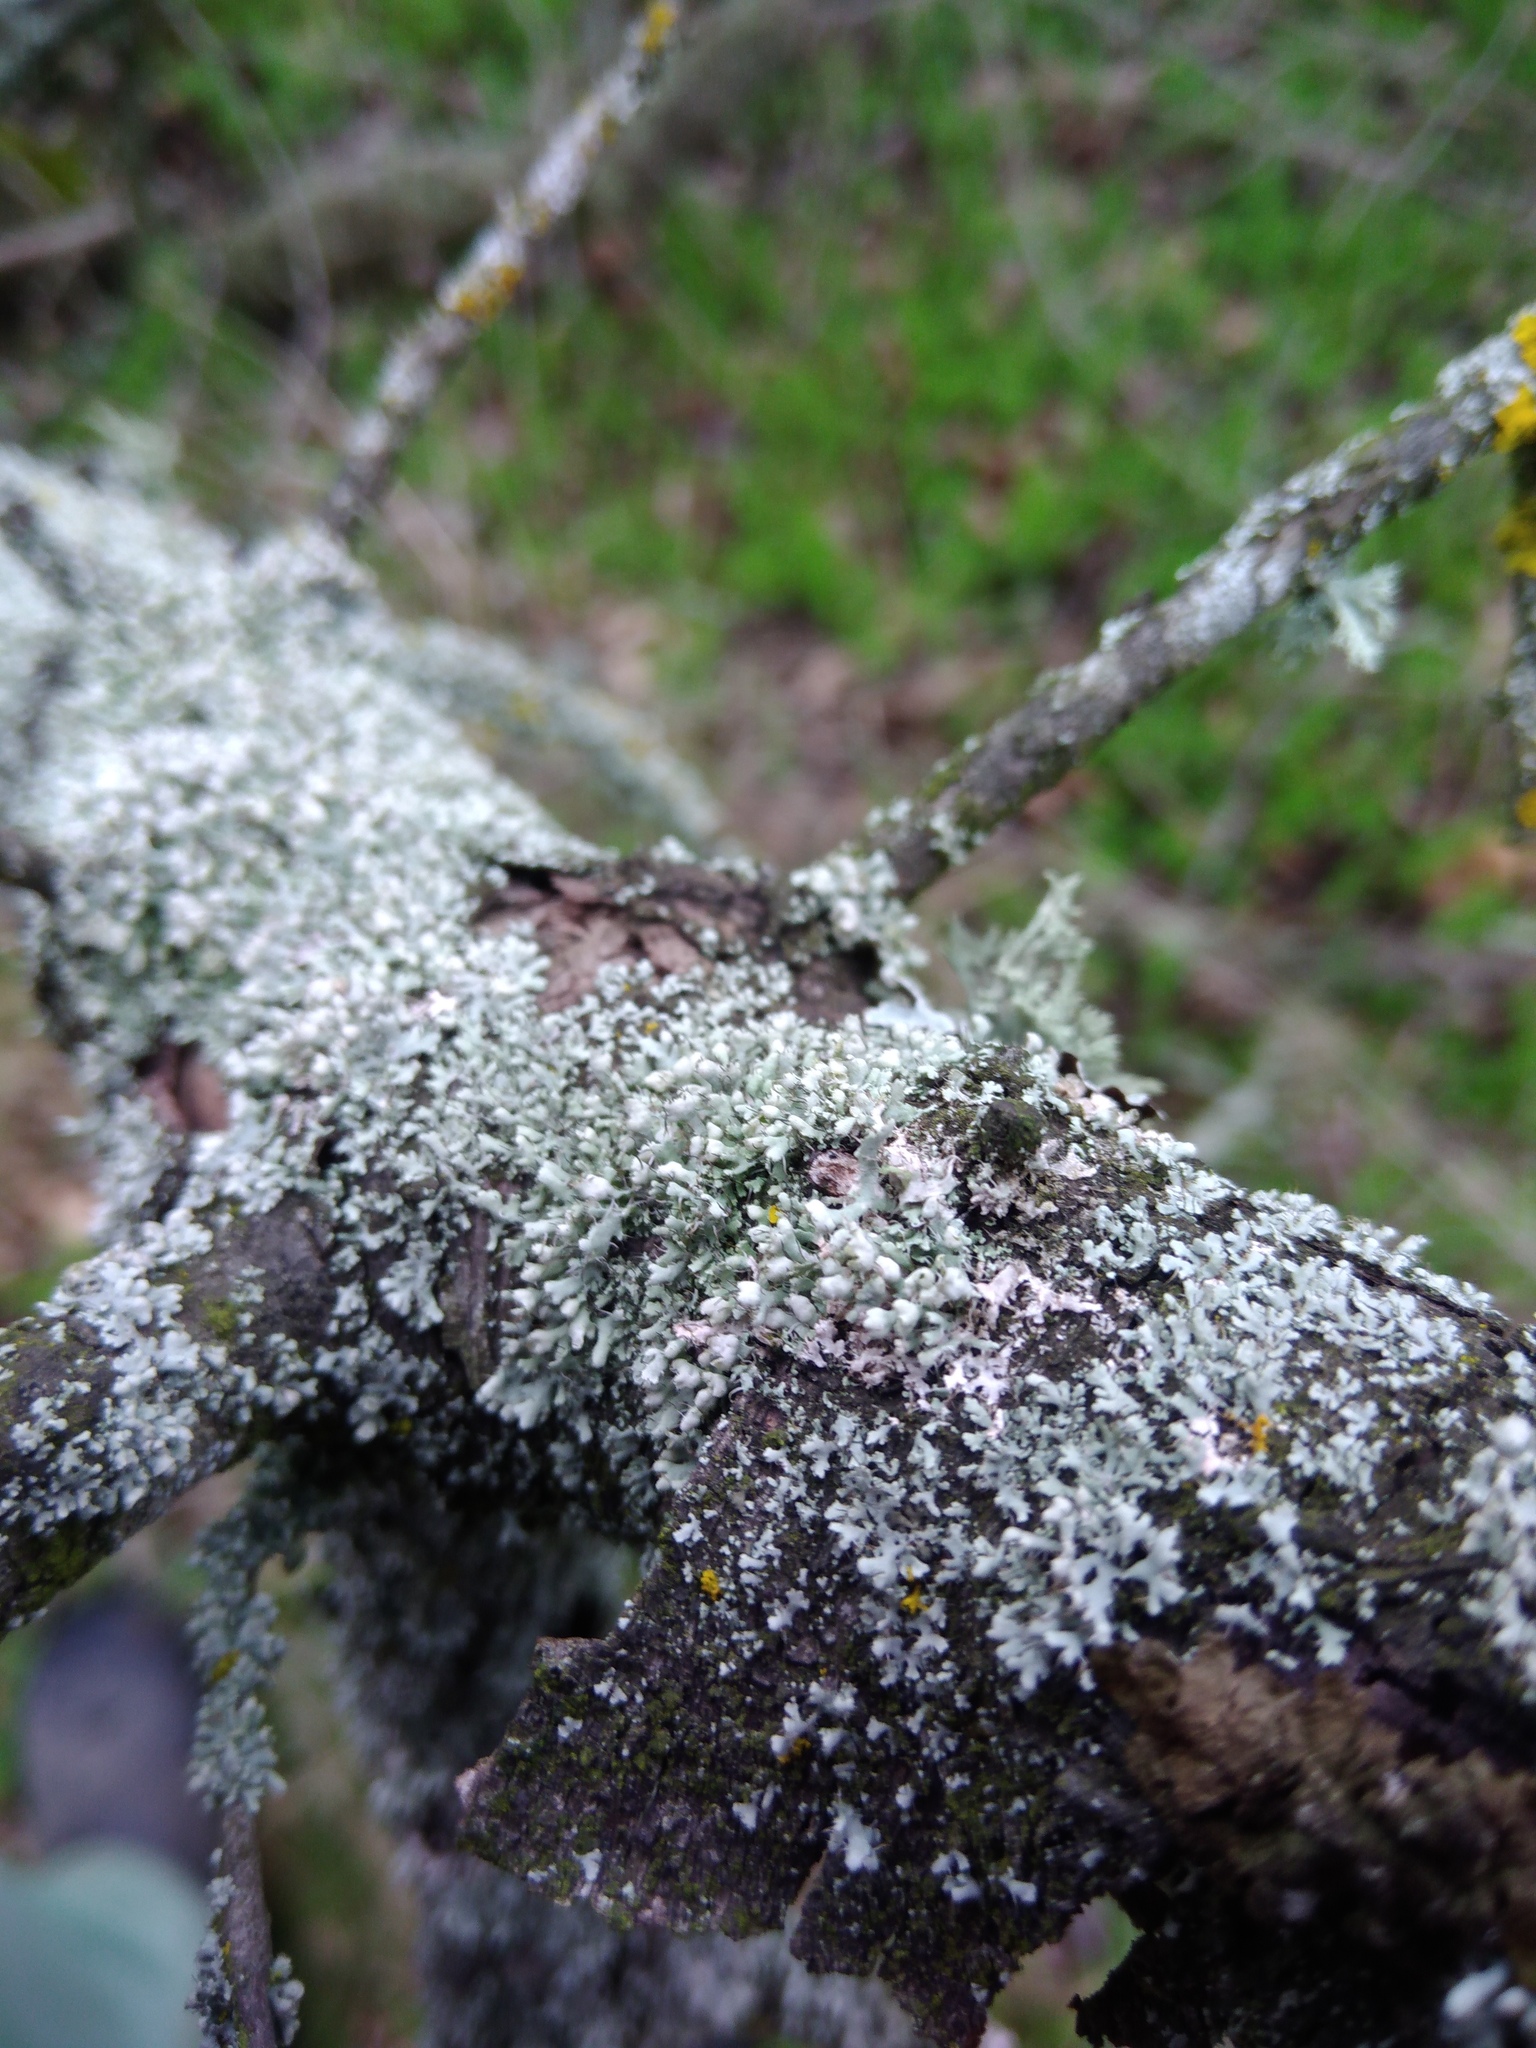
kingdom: Fungi
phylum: Ascomycota
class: Lecanoromycetes
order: Caliciales
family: Physciaceae
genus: Physcia
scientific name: Physcia adscendens
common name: Hooded rosette lichen
